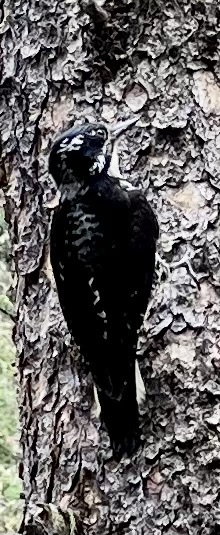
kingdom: Animalia
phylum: Chordata
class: Aves
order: Piciformes
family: Picidae
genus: Picoides
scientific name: Picoides dorsalis
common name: American three-toed woodpecker
